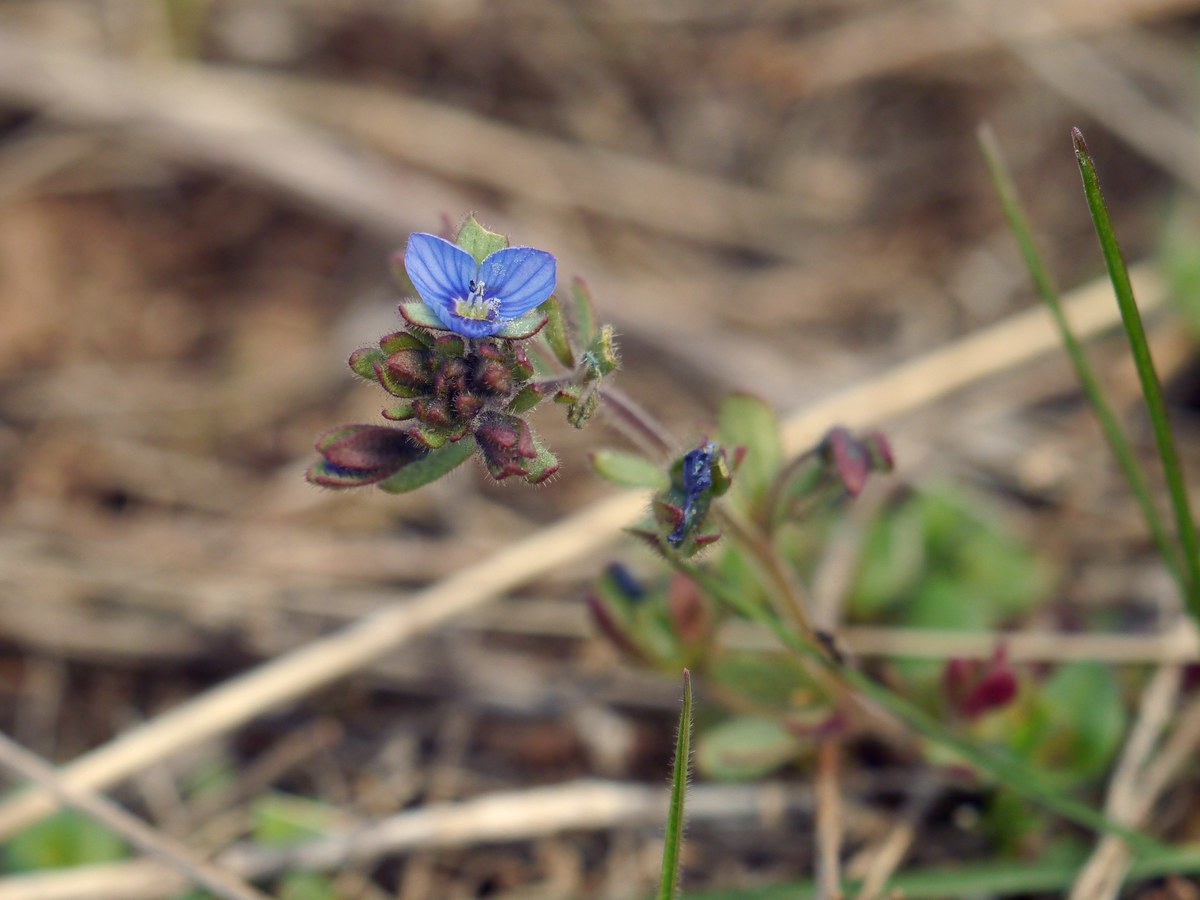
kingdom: Plantae
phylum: Tracheophyta
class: Magnoliopsida
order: Lamiales
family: Plantaginaceae
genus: Veronica
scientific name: Veronica triphyllos
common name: Fingered speedwell
